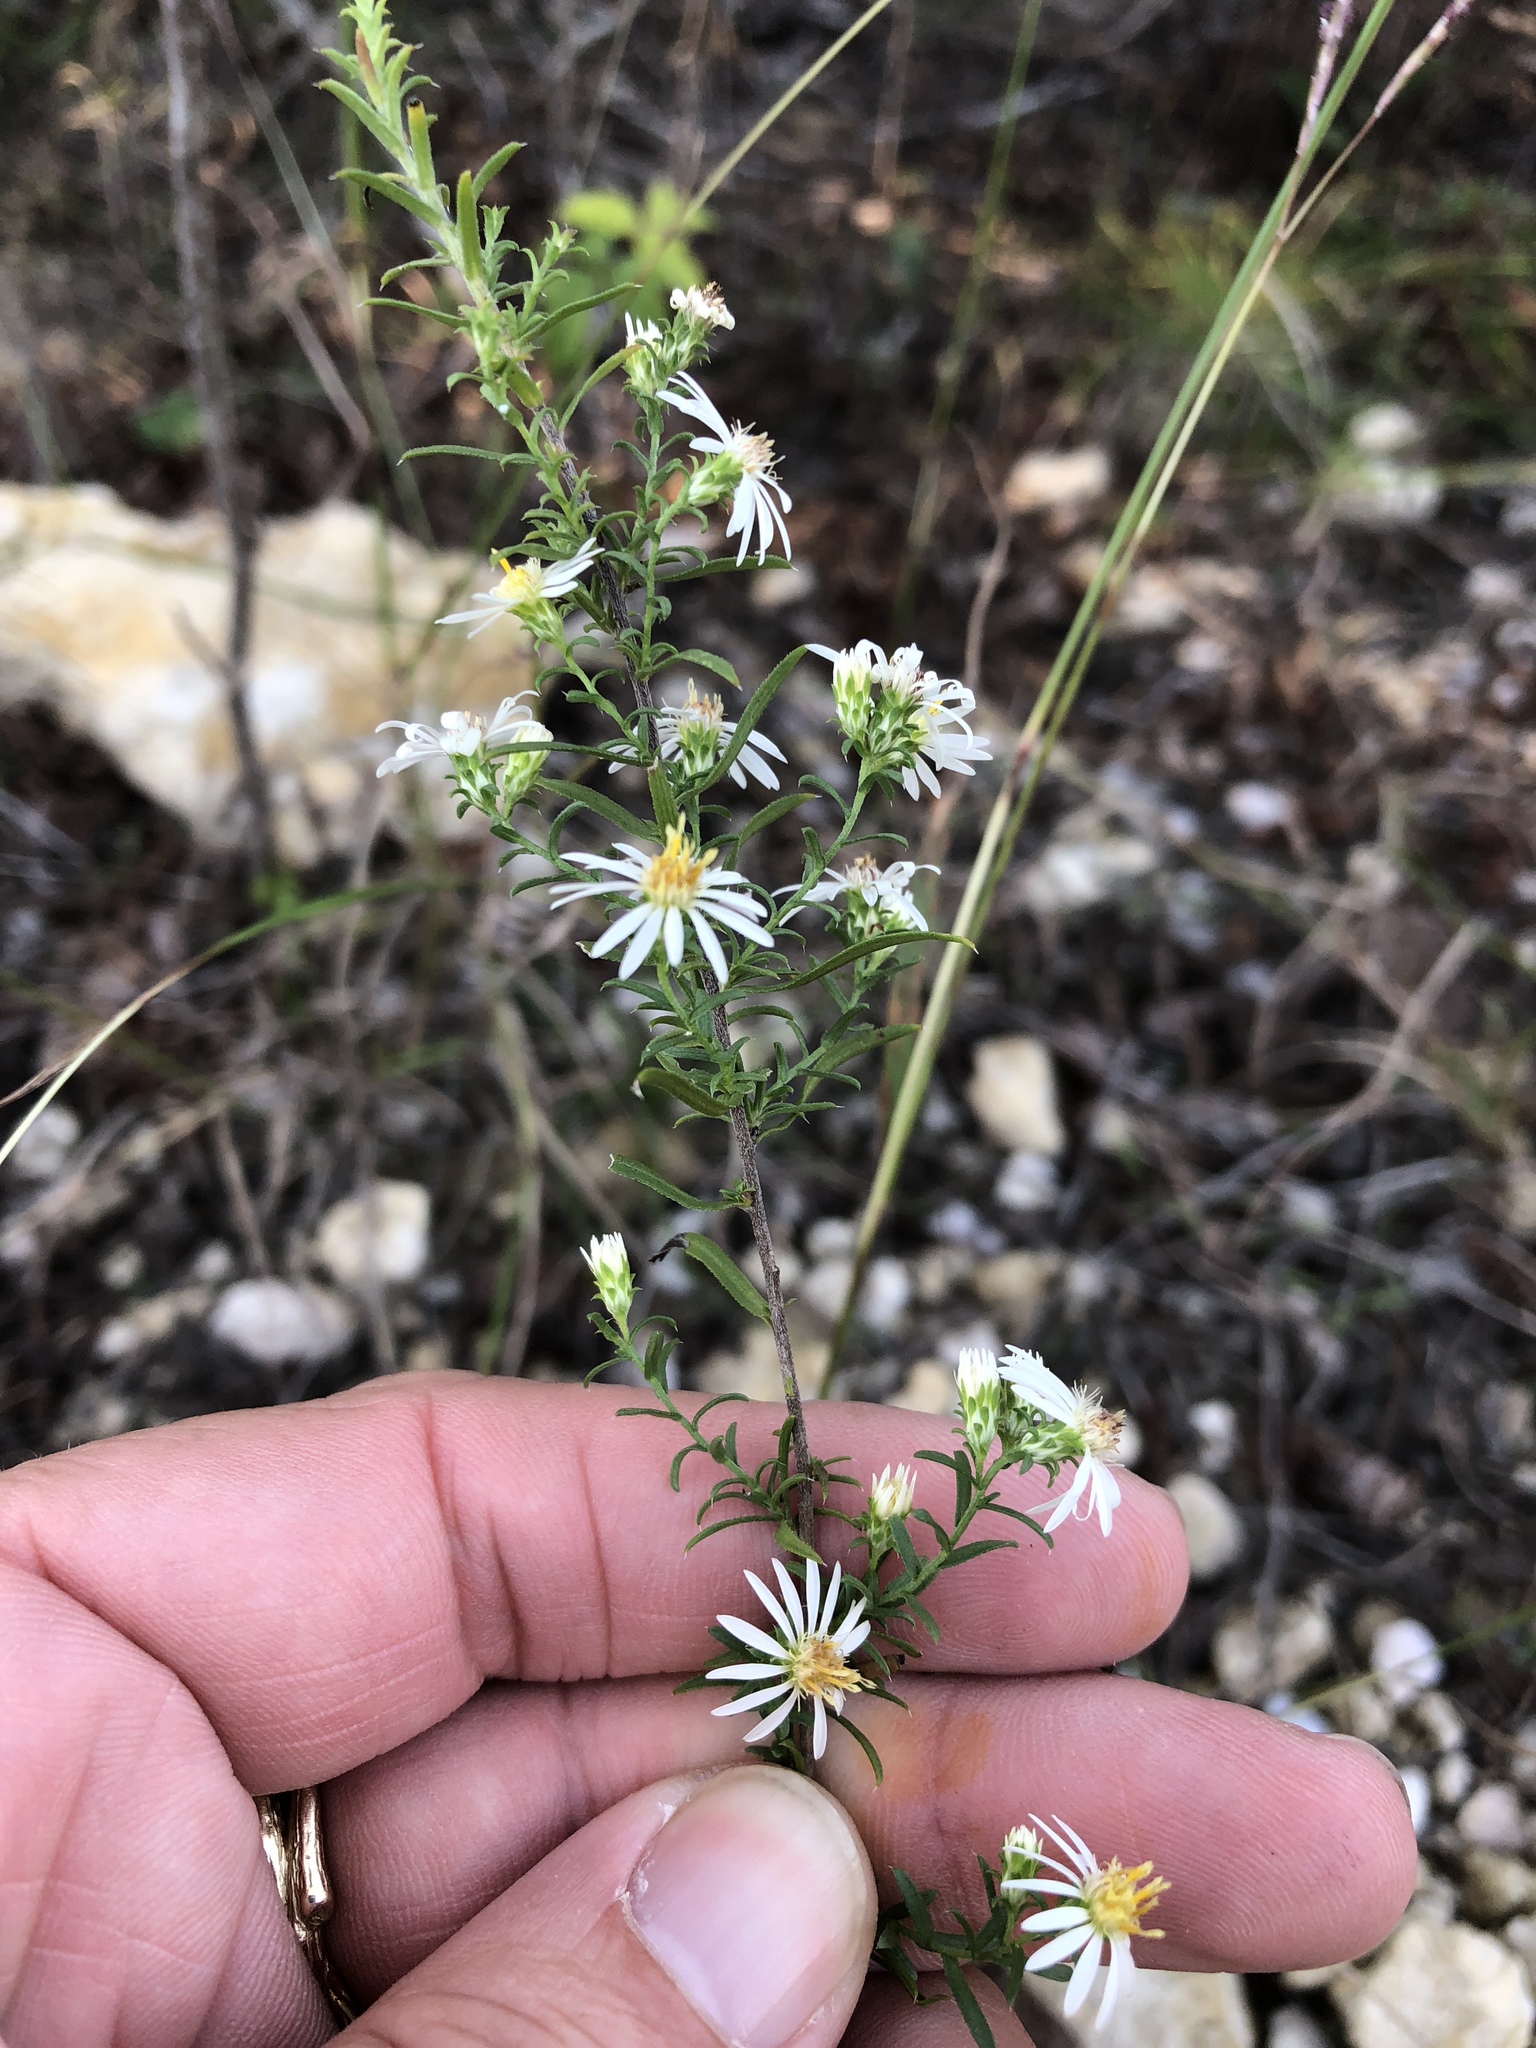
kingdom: Plantae
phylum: Tracheophyta
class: Magnoliopsida
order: Asterales
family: Asteraceae
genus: Symphyotrichum
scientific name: Symphyotrichum ericoides
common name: Heath aster
